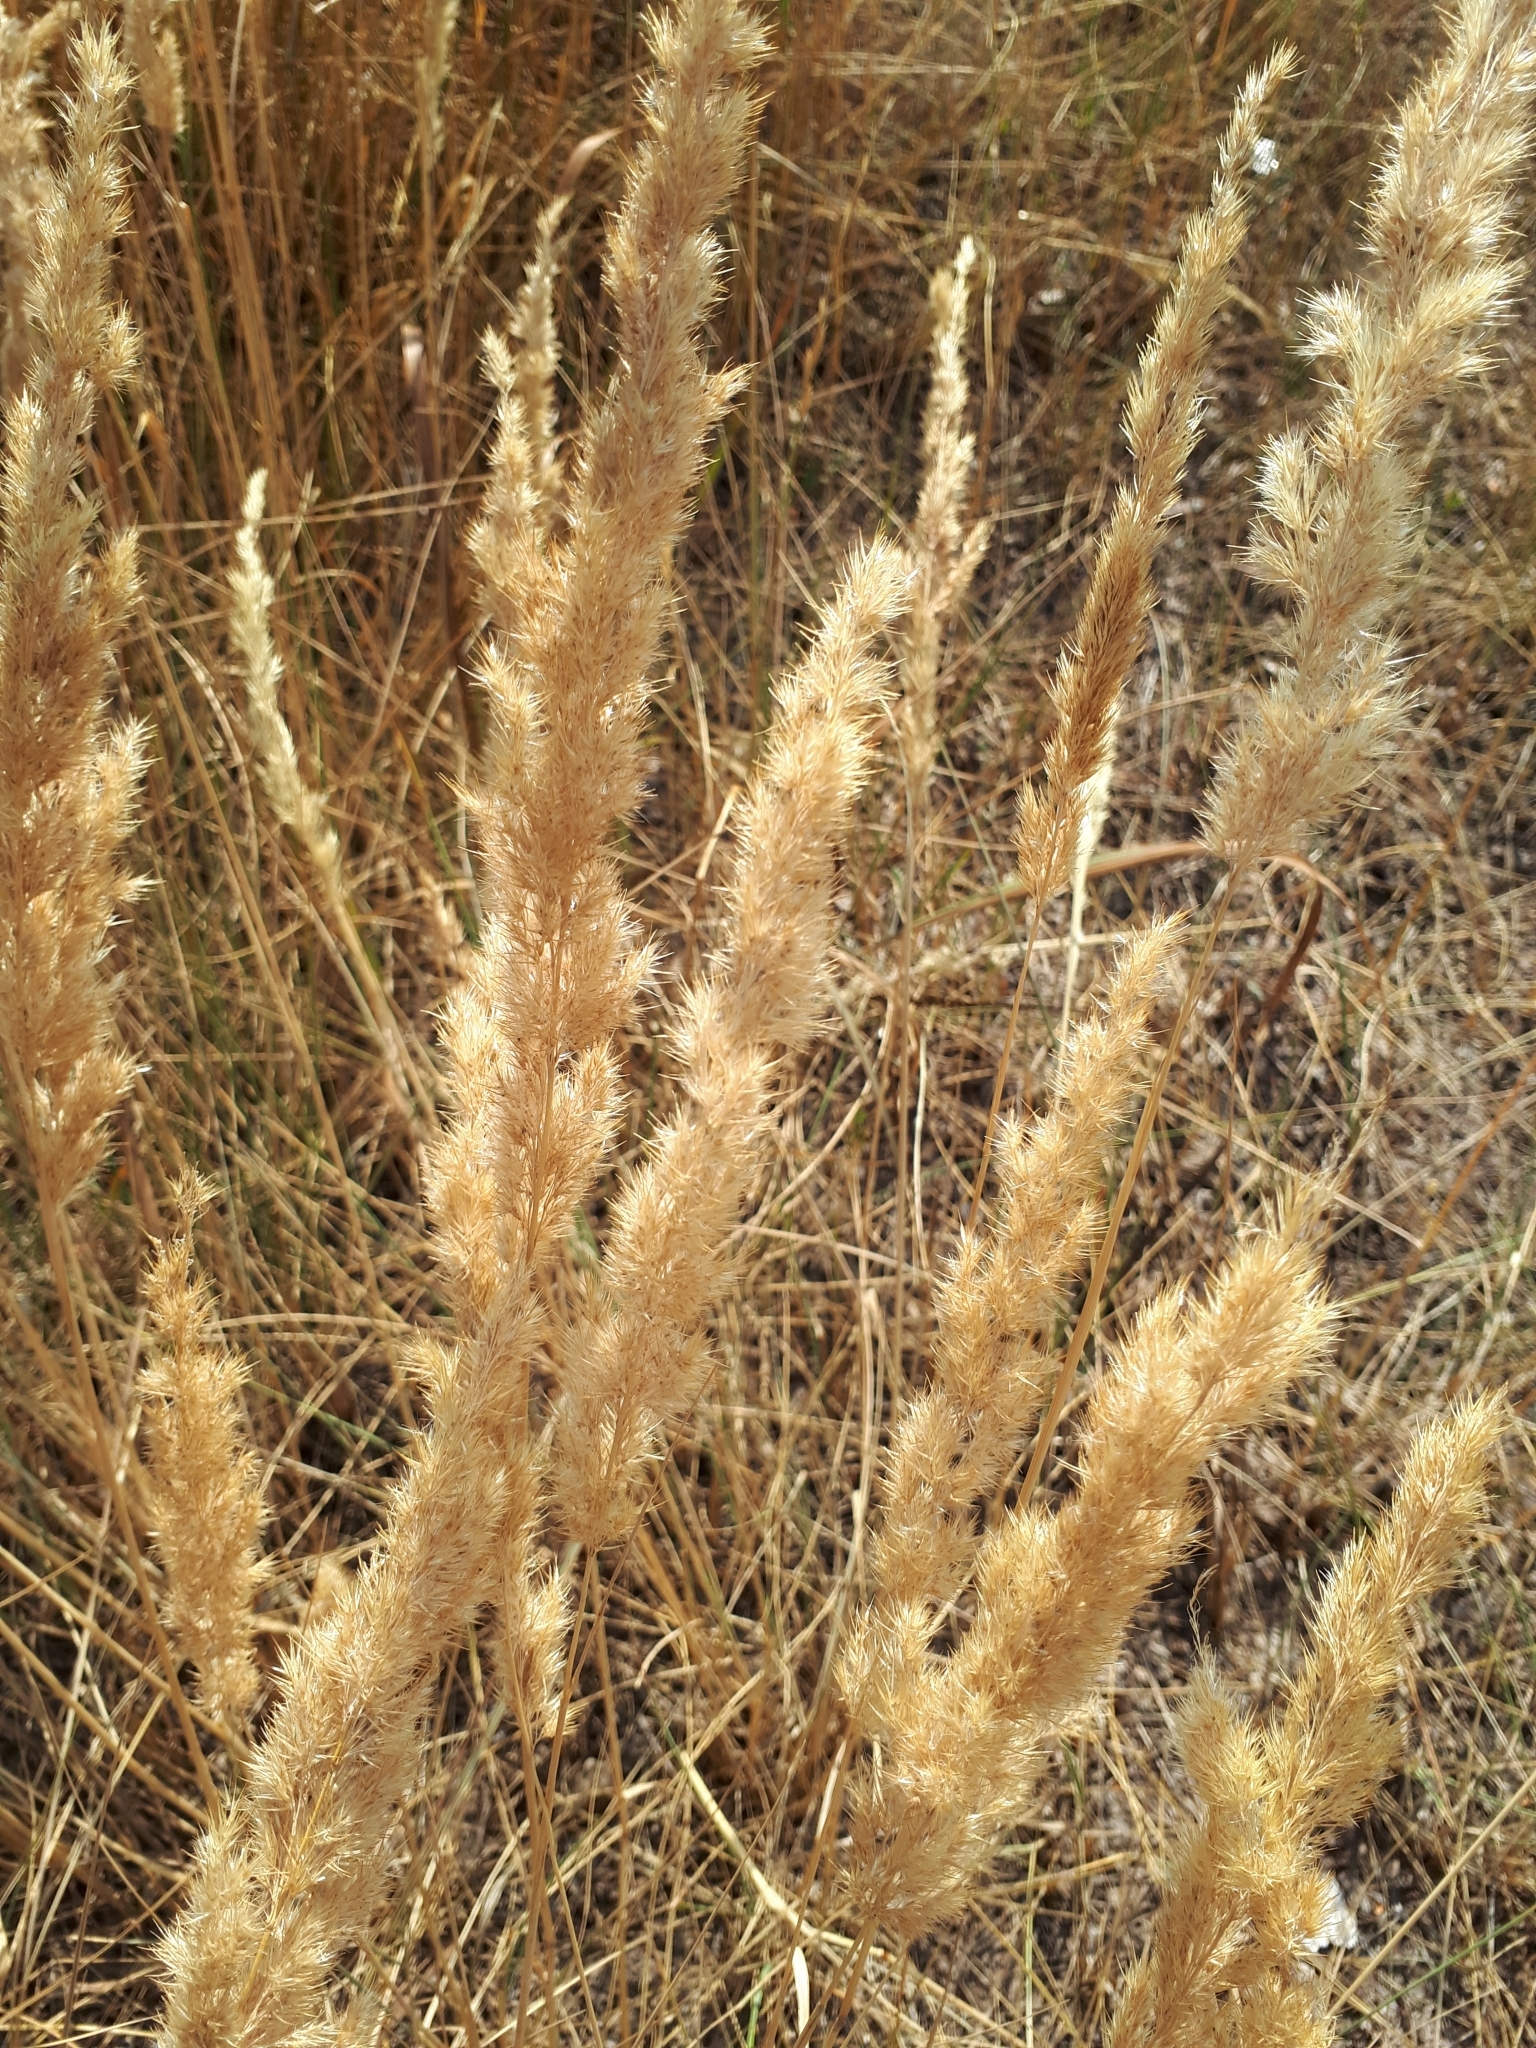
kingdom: Plantae
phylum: Tracheophyta
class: Liliopsida
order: Poales
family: Poaceae
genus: Calamagrostis
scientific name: Calamagrostis epigejos
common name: Wood small-reed
